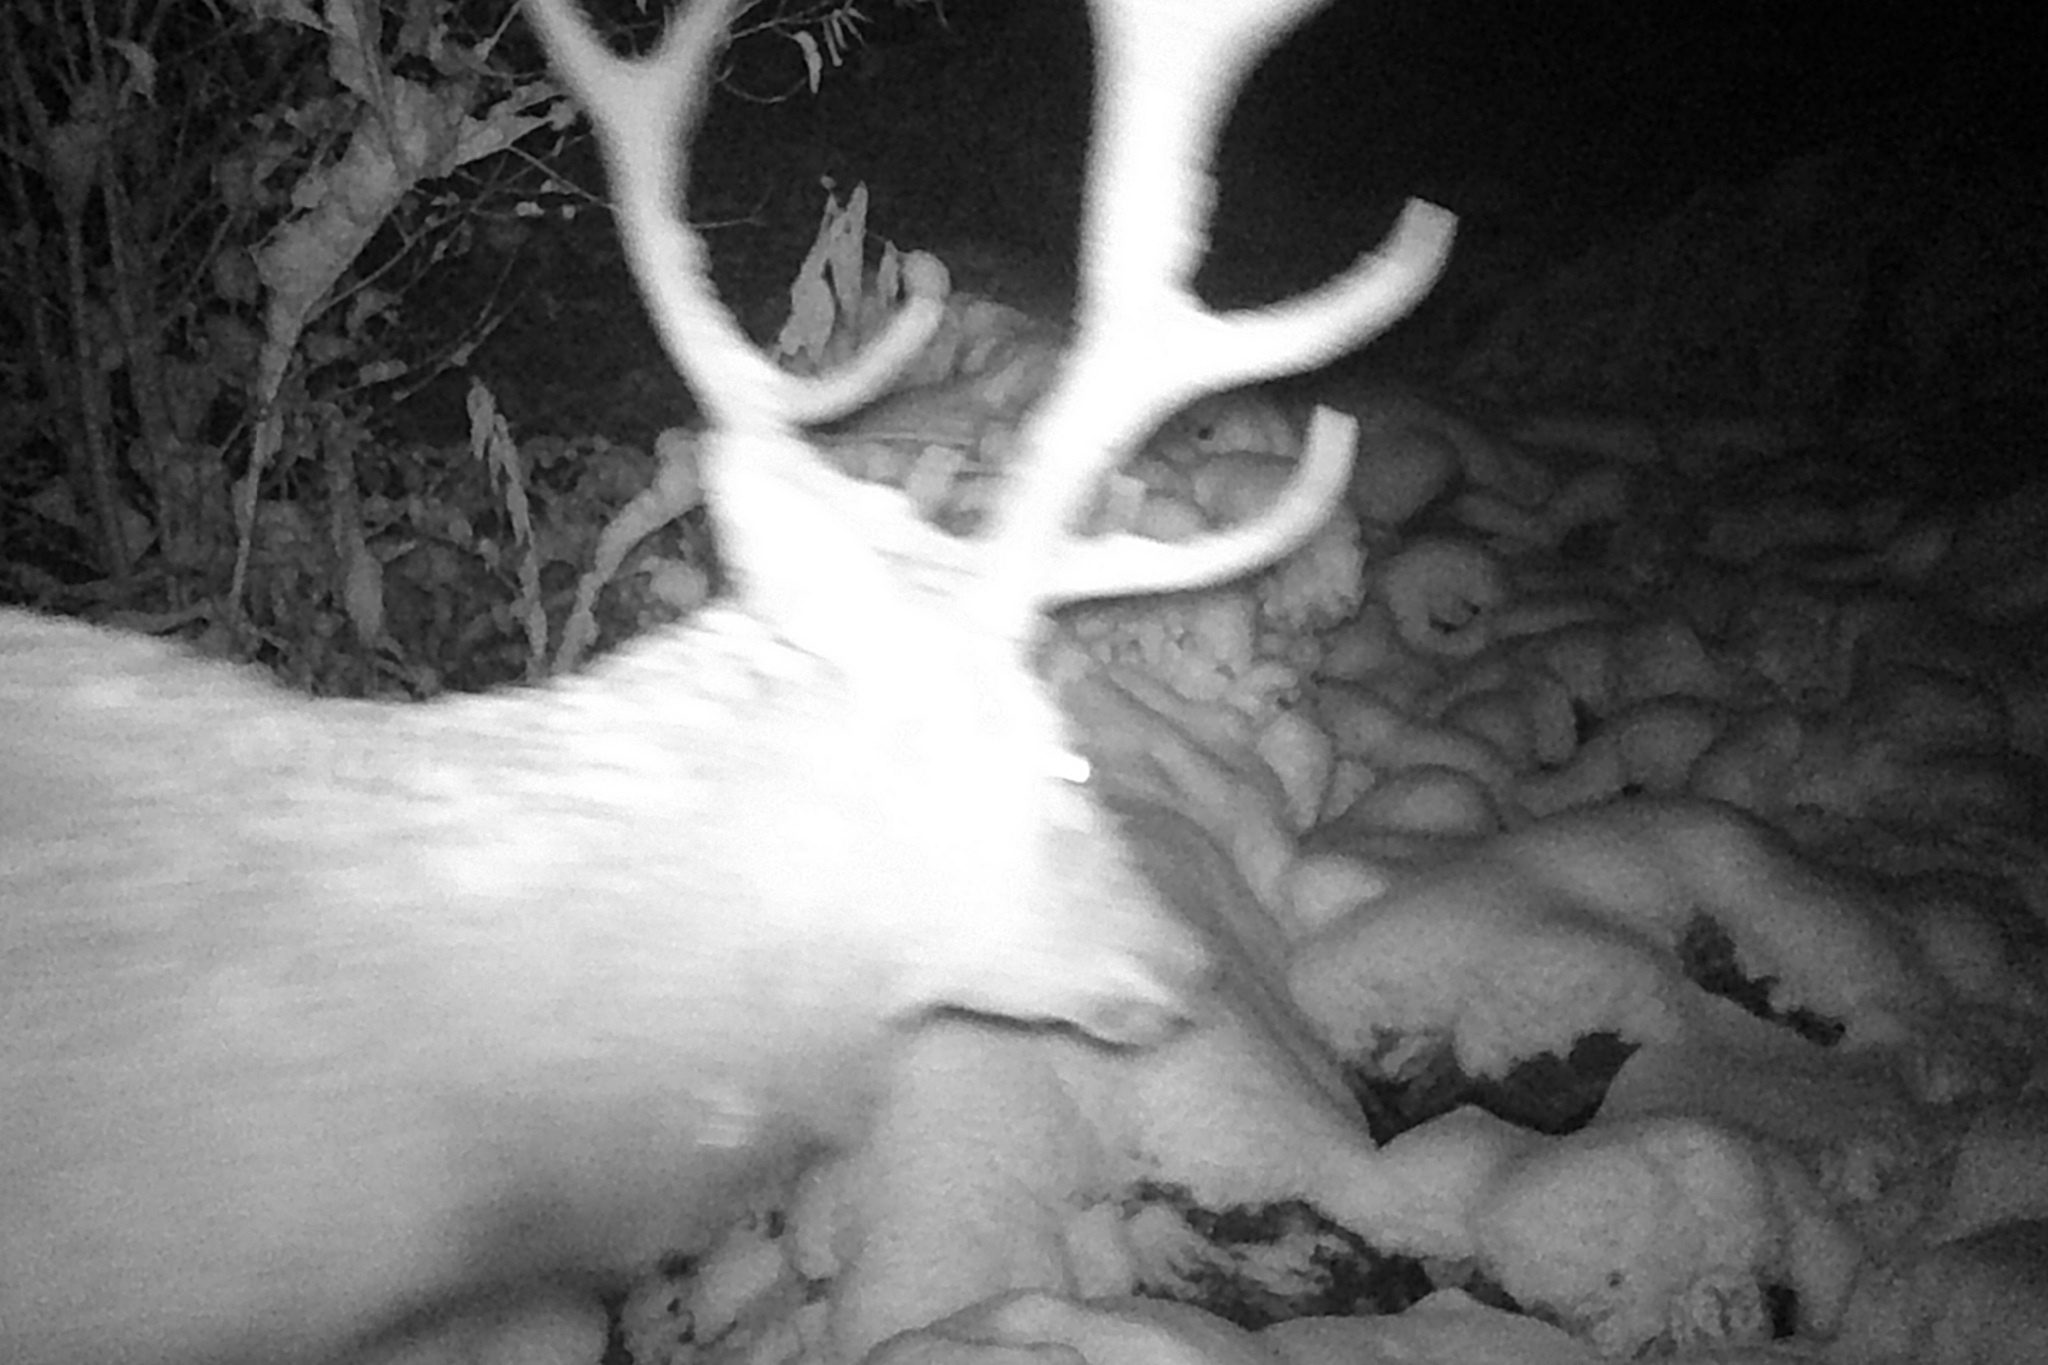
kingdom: Animalia
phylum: Chordata
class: Mammalia
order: Artiodactyla
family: Cervidae
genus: Cervus
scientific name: Cervus elaphus
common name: Red deer
